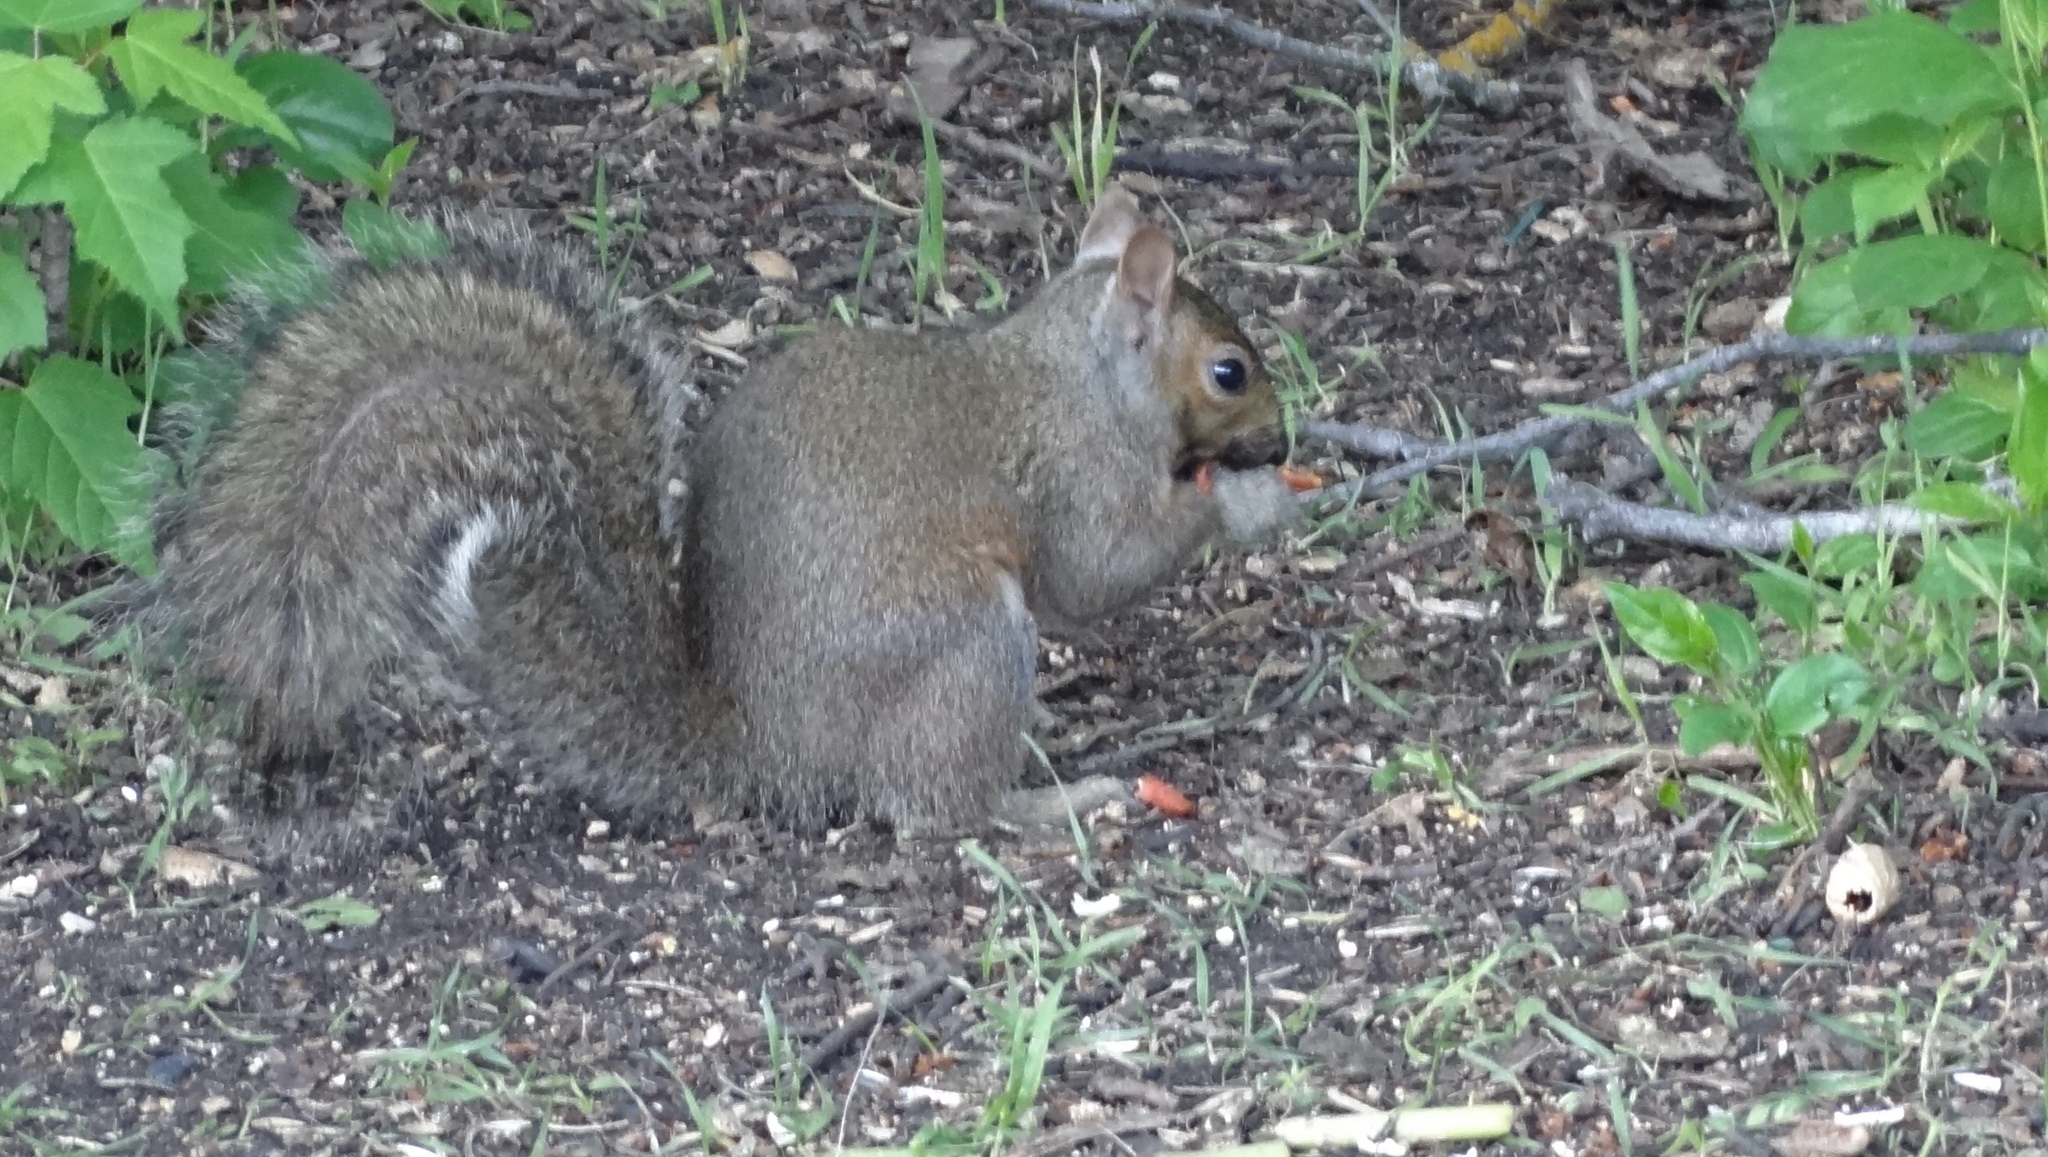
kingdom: Animalia
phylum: Chordata
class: Mammalia
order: Rodentia
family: Sciuridae
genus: Sciurus
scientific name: Sciurus carolinensis
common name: Eastern gray squirrel
